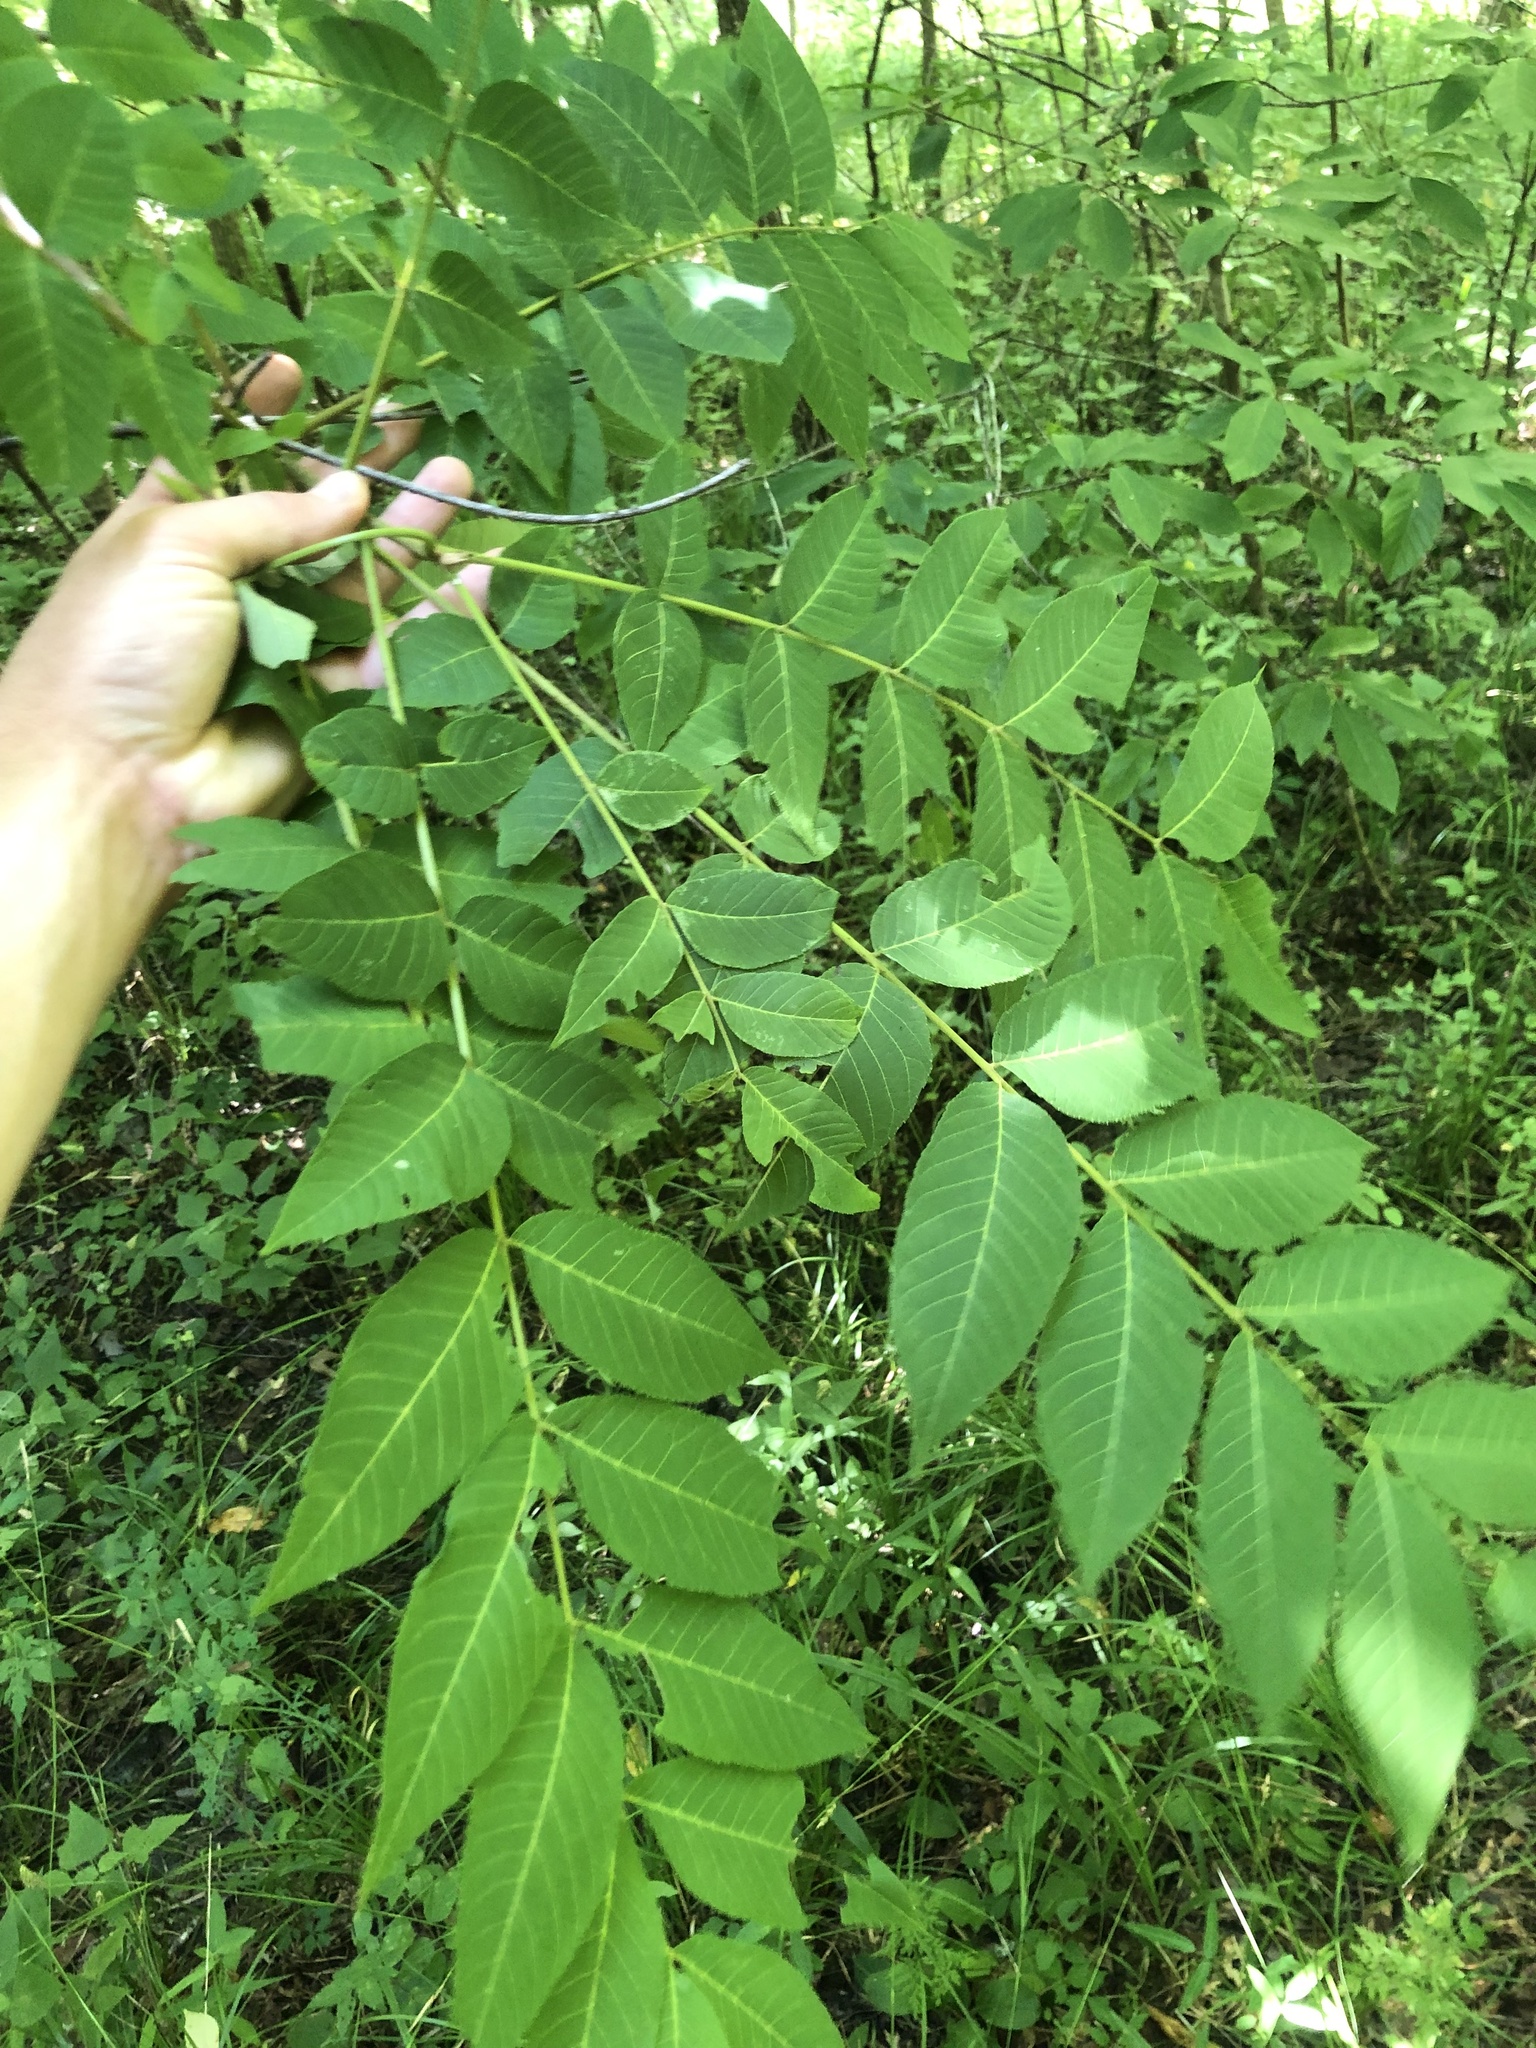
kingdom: Plantae
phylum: Tracheophyta
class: Magnoliopsida
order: Fagales
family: Juglandaceae
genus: Juglans
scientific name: Juglans nigra
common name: Black walnut
